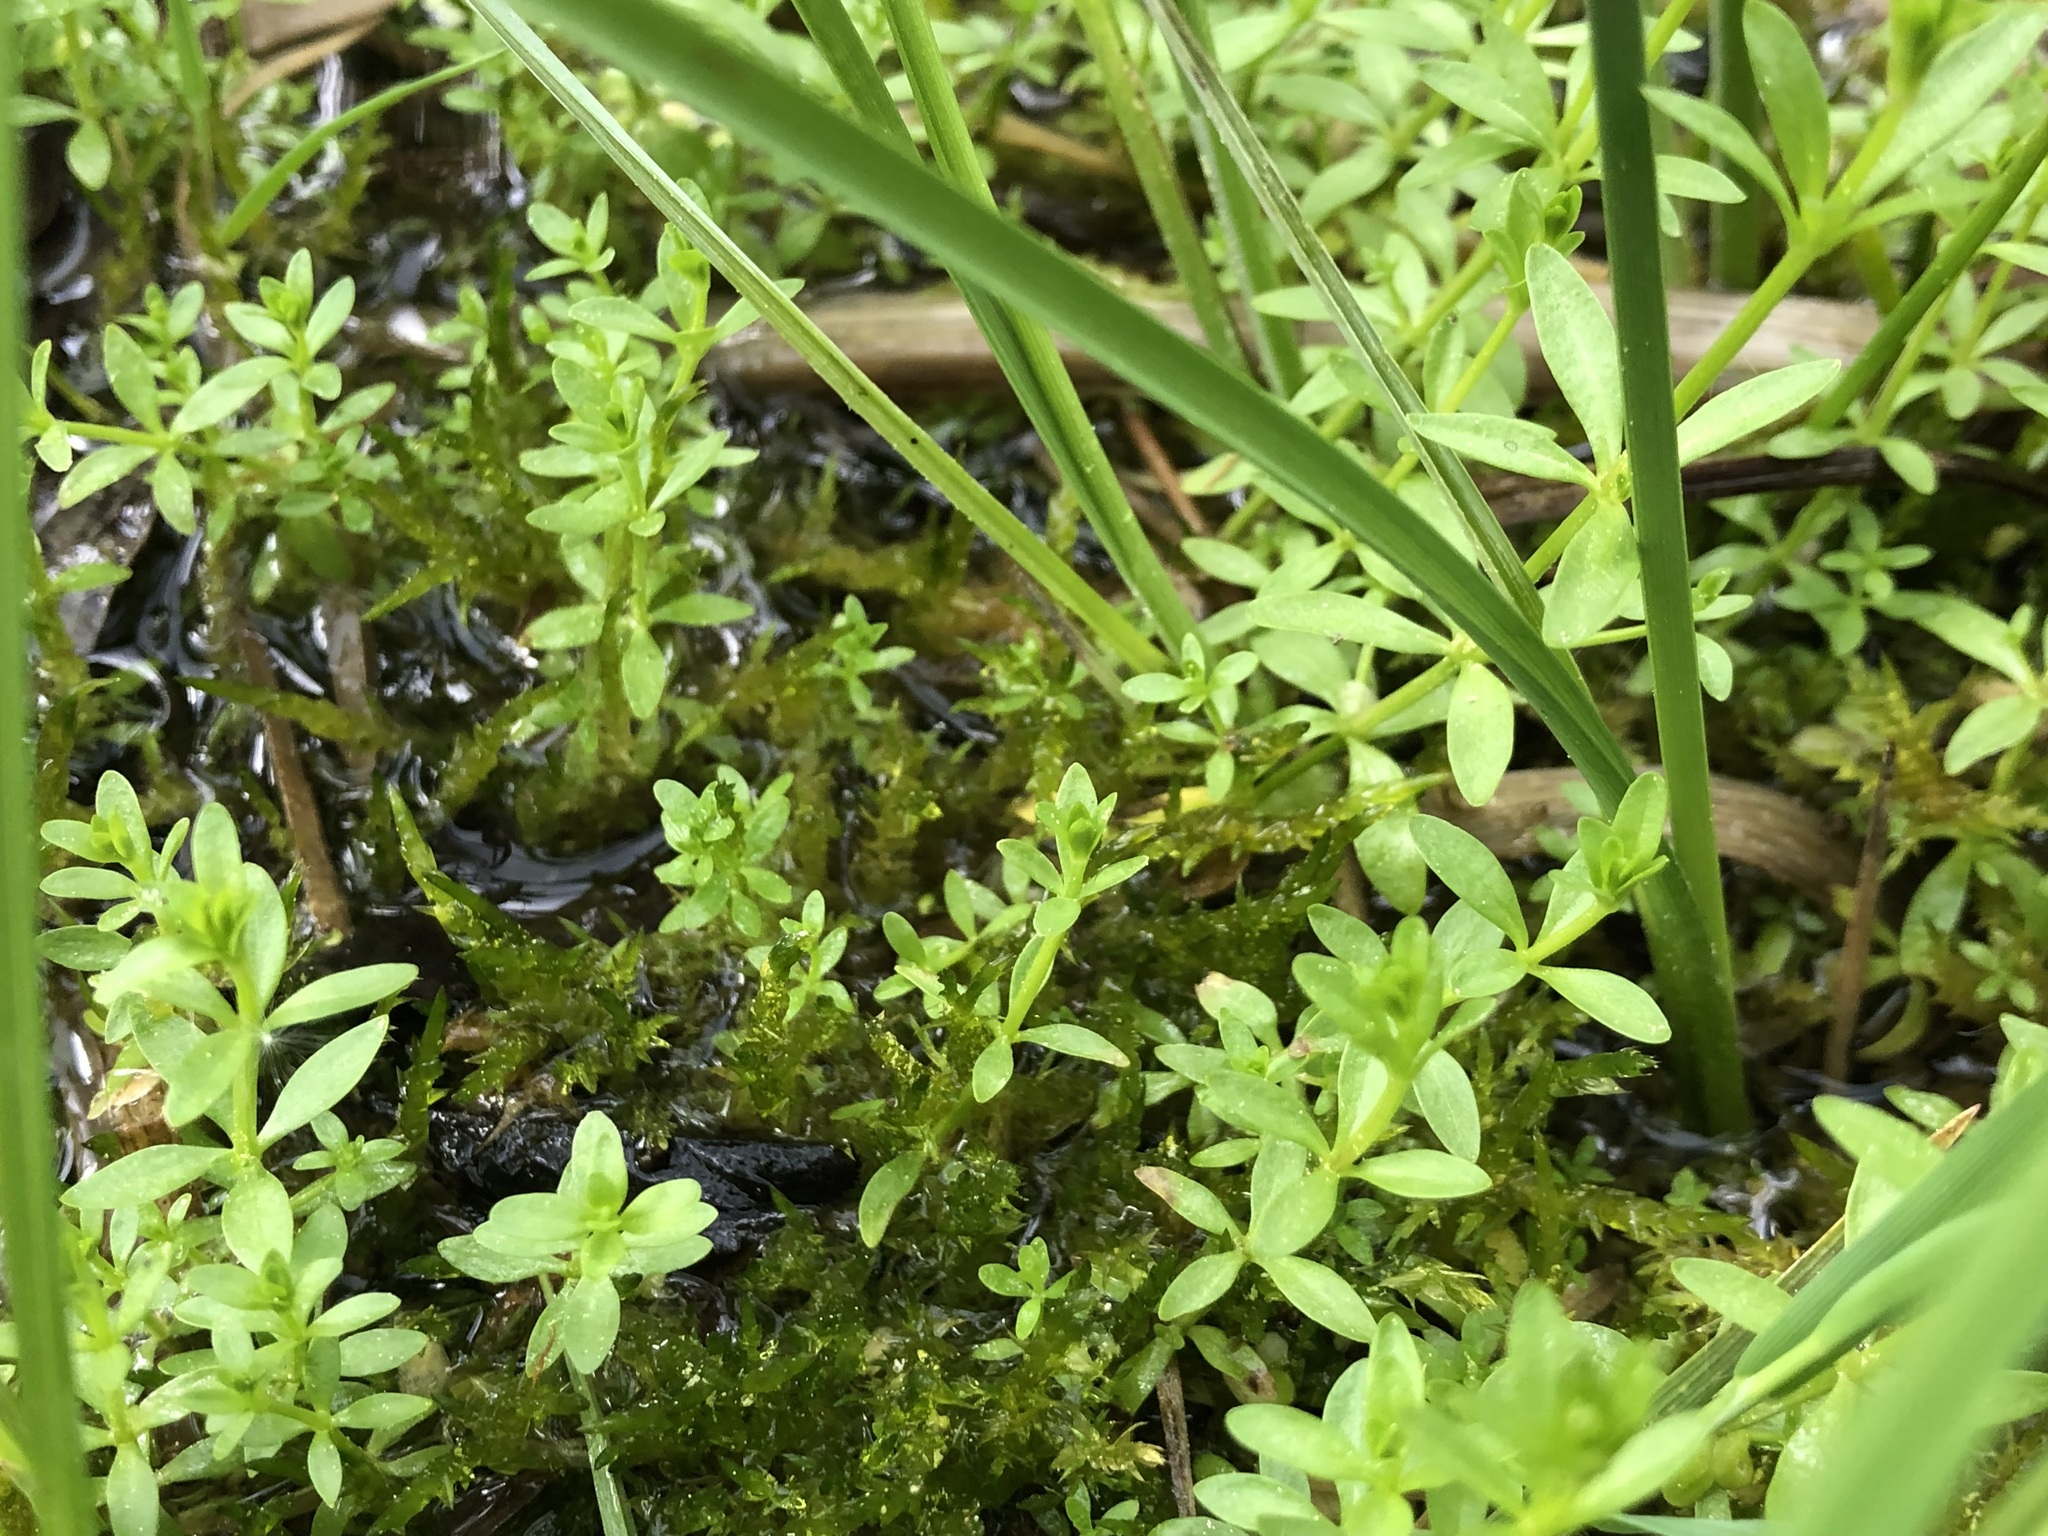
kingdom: Plantae
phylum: Tracheophyta
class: Magnoliopsida
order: Gentianales
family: Rubiaceae
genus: Galium
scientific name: Galium palustre
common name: Common marsh-bedstraw
